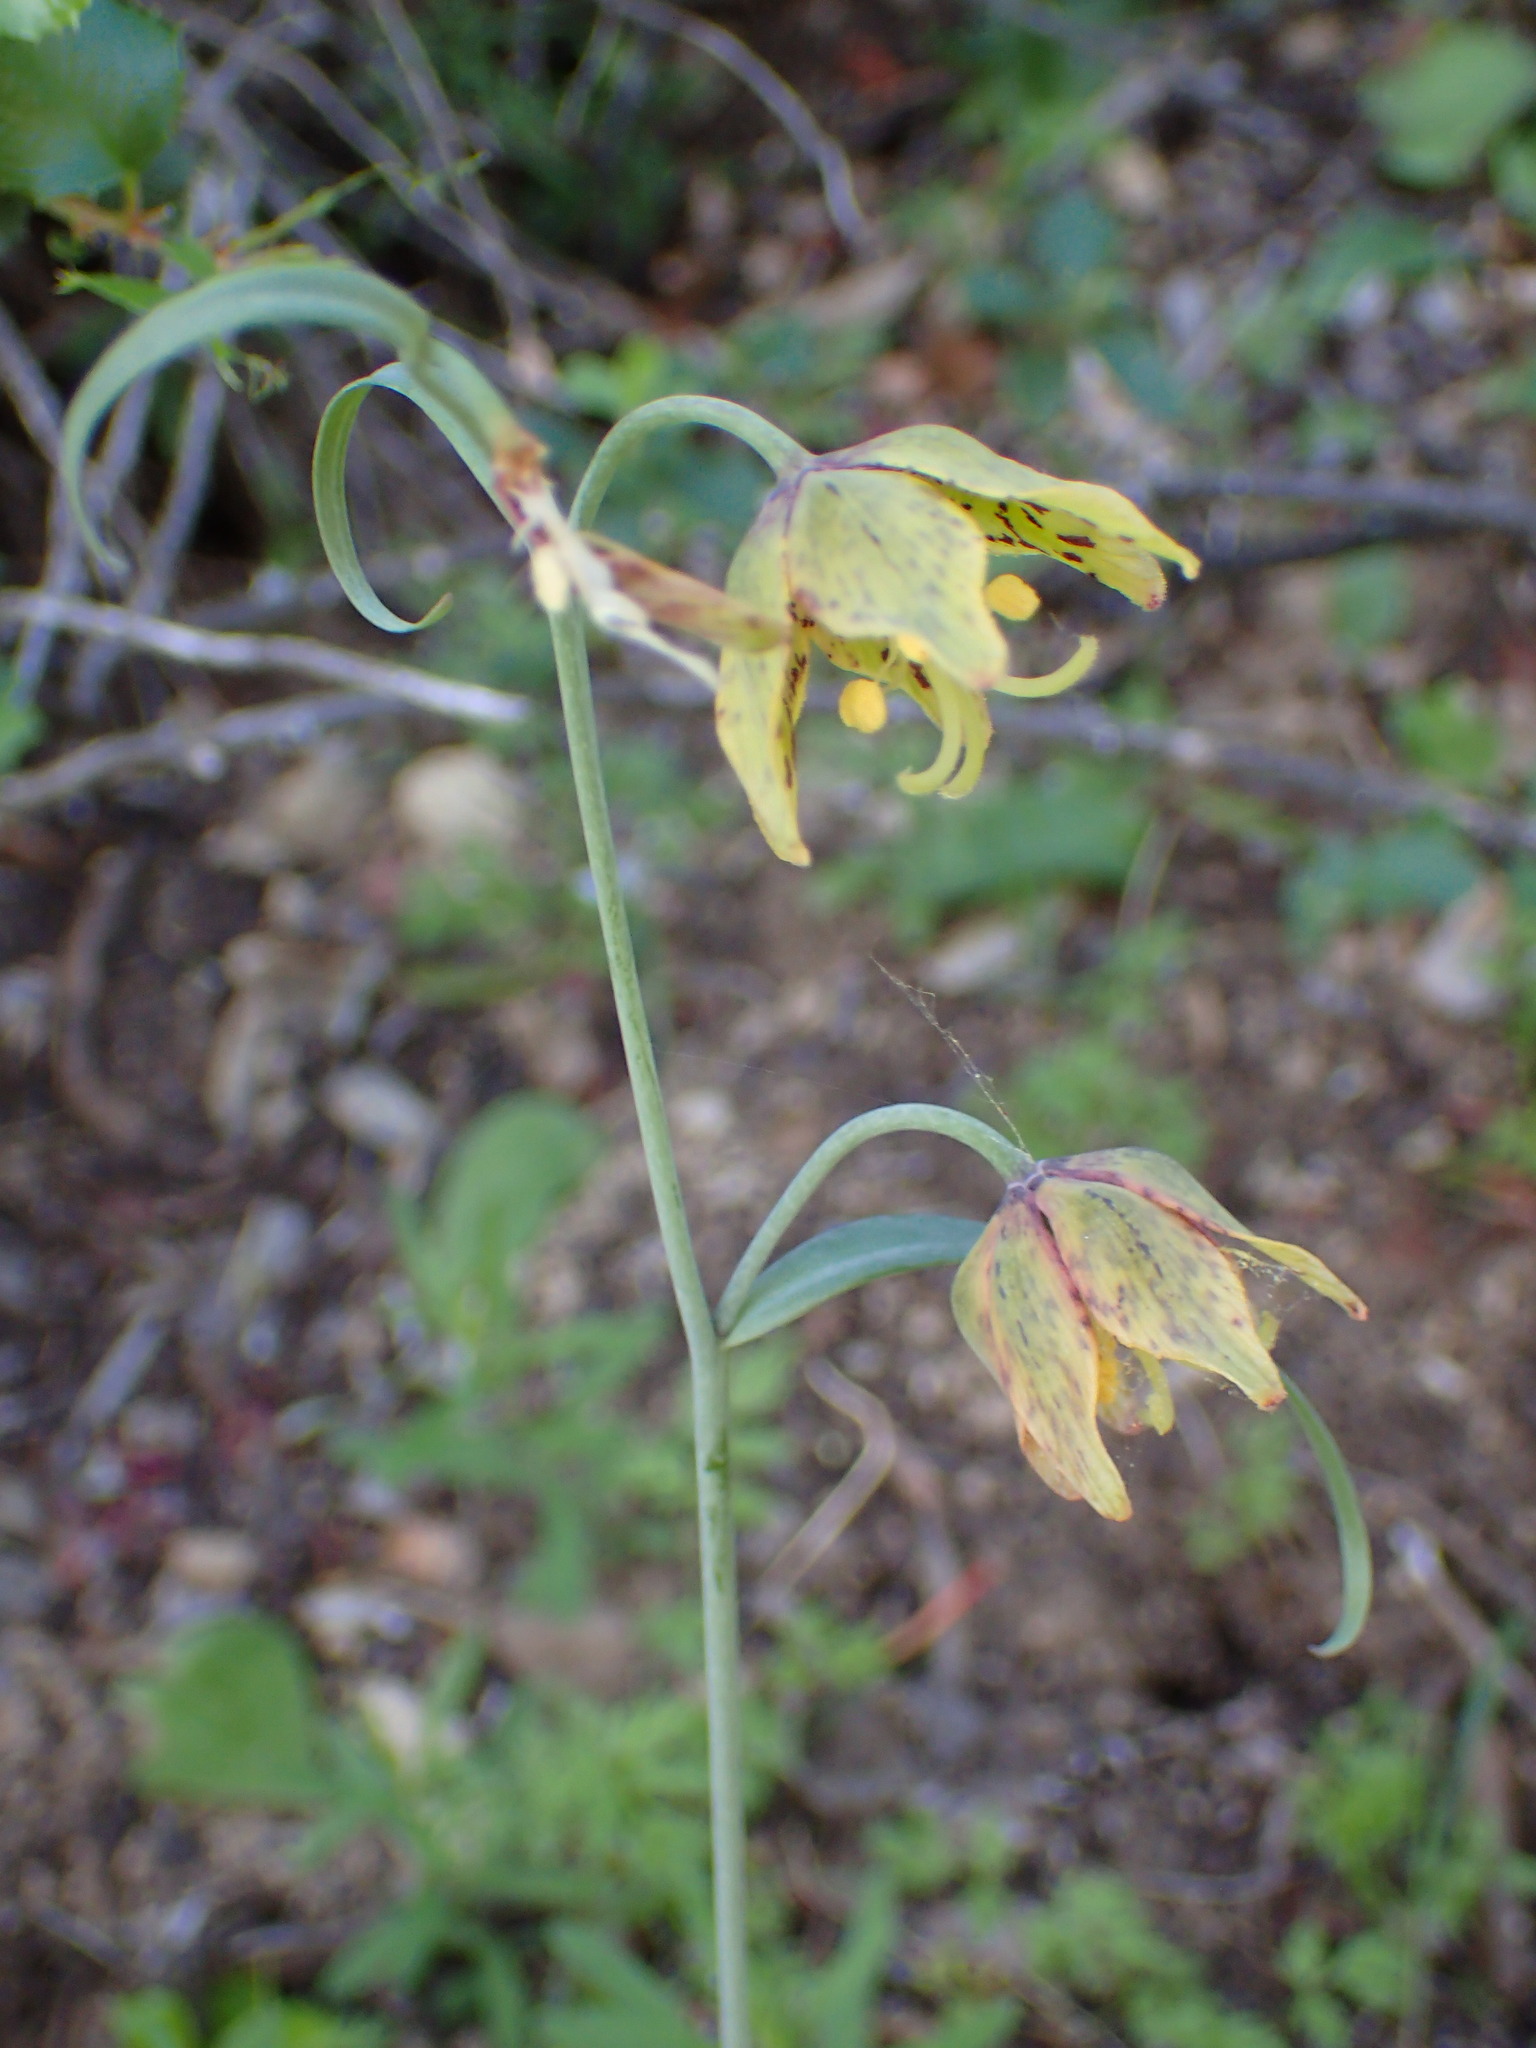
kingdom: Plantae
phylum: Tracheophyta
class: Liliopsida
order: Liliales
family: Liliaceae
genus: Fritillaria
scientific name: Fritillaria ojaiensis
